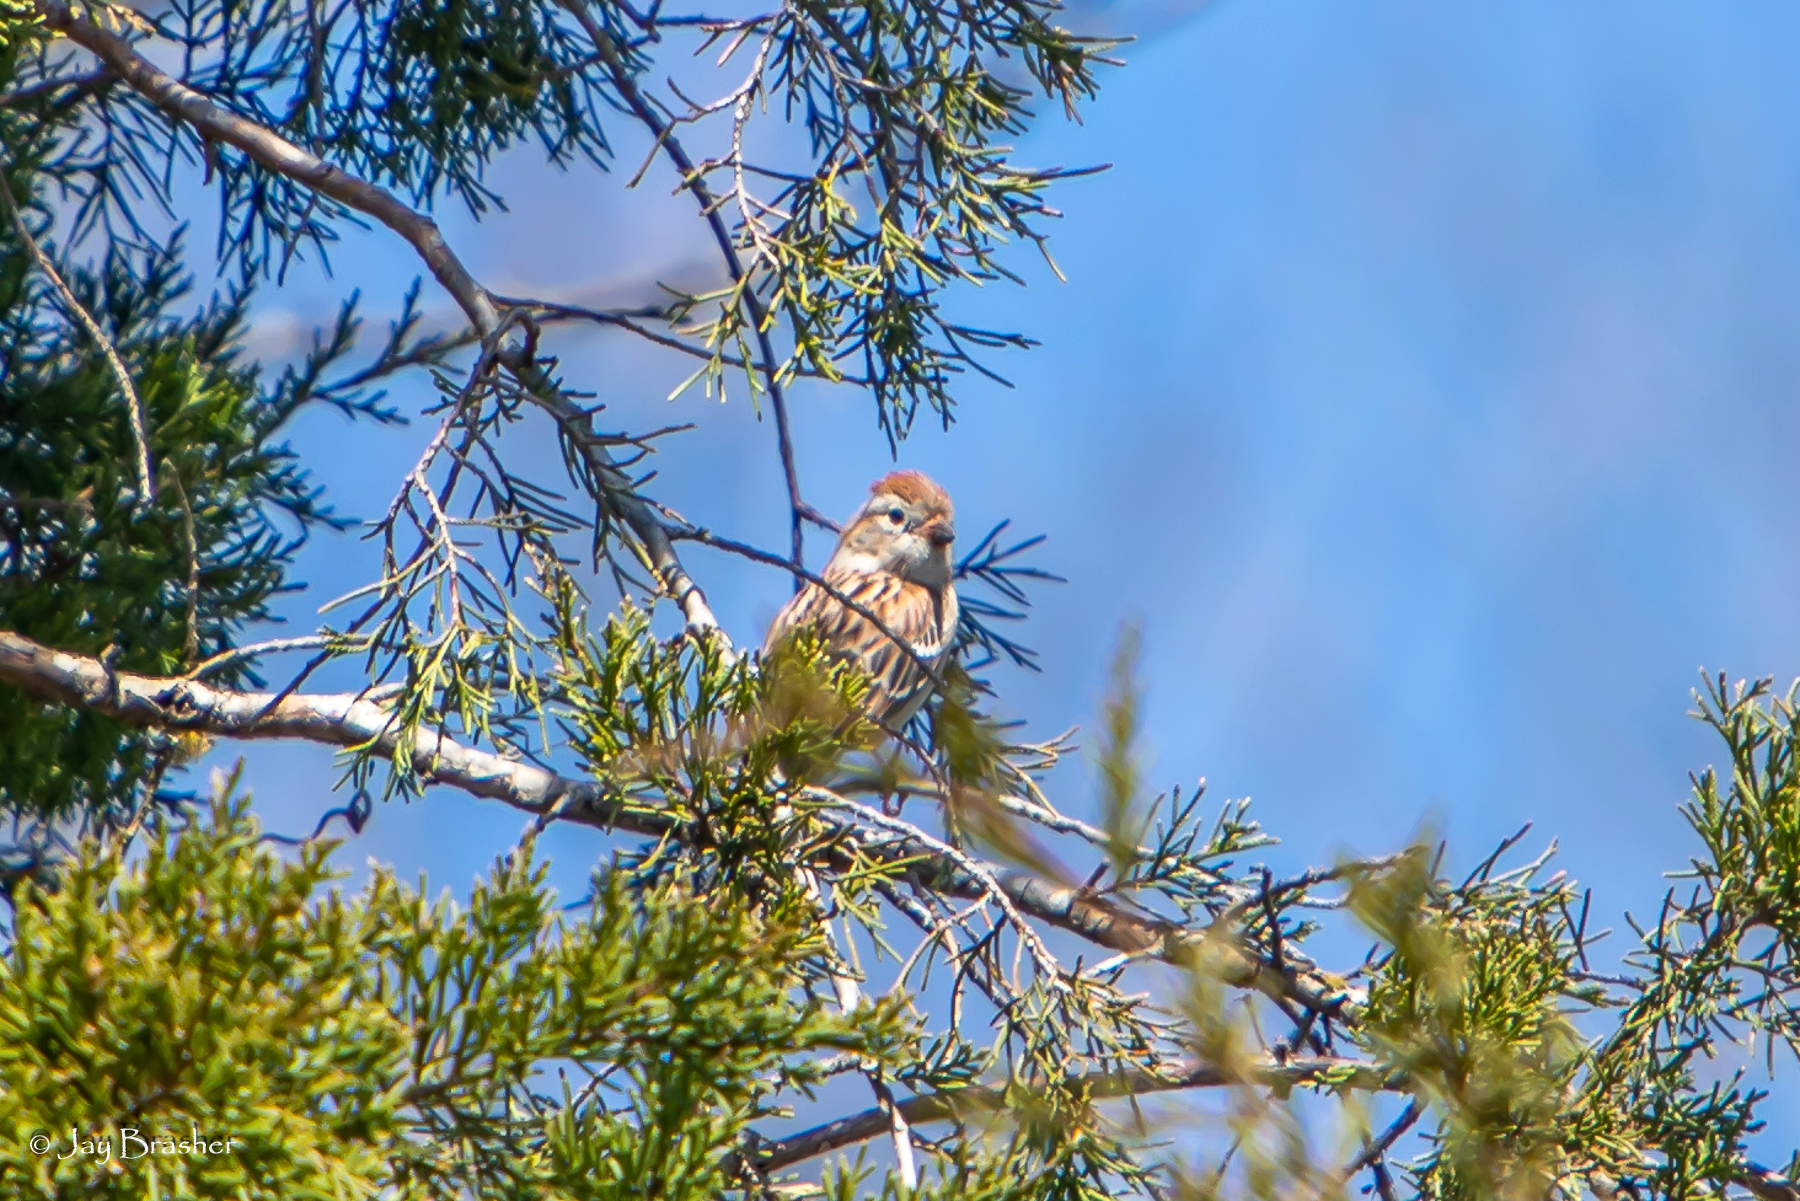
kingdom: Animalia
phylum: Chordata
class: Aves
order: Passeriformes
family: Passerellidae
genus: Spizella
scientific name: Spizella pusilla
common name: Field sparrow
